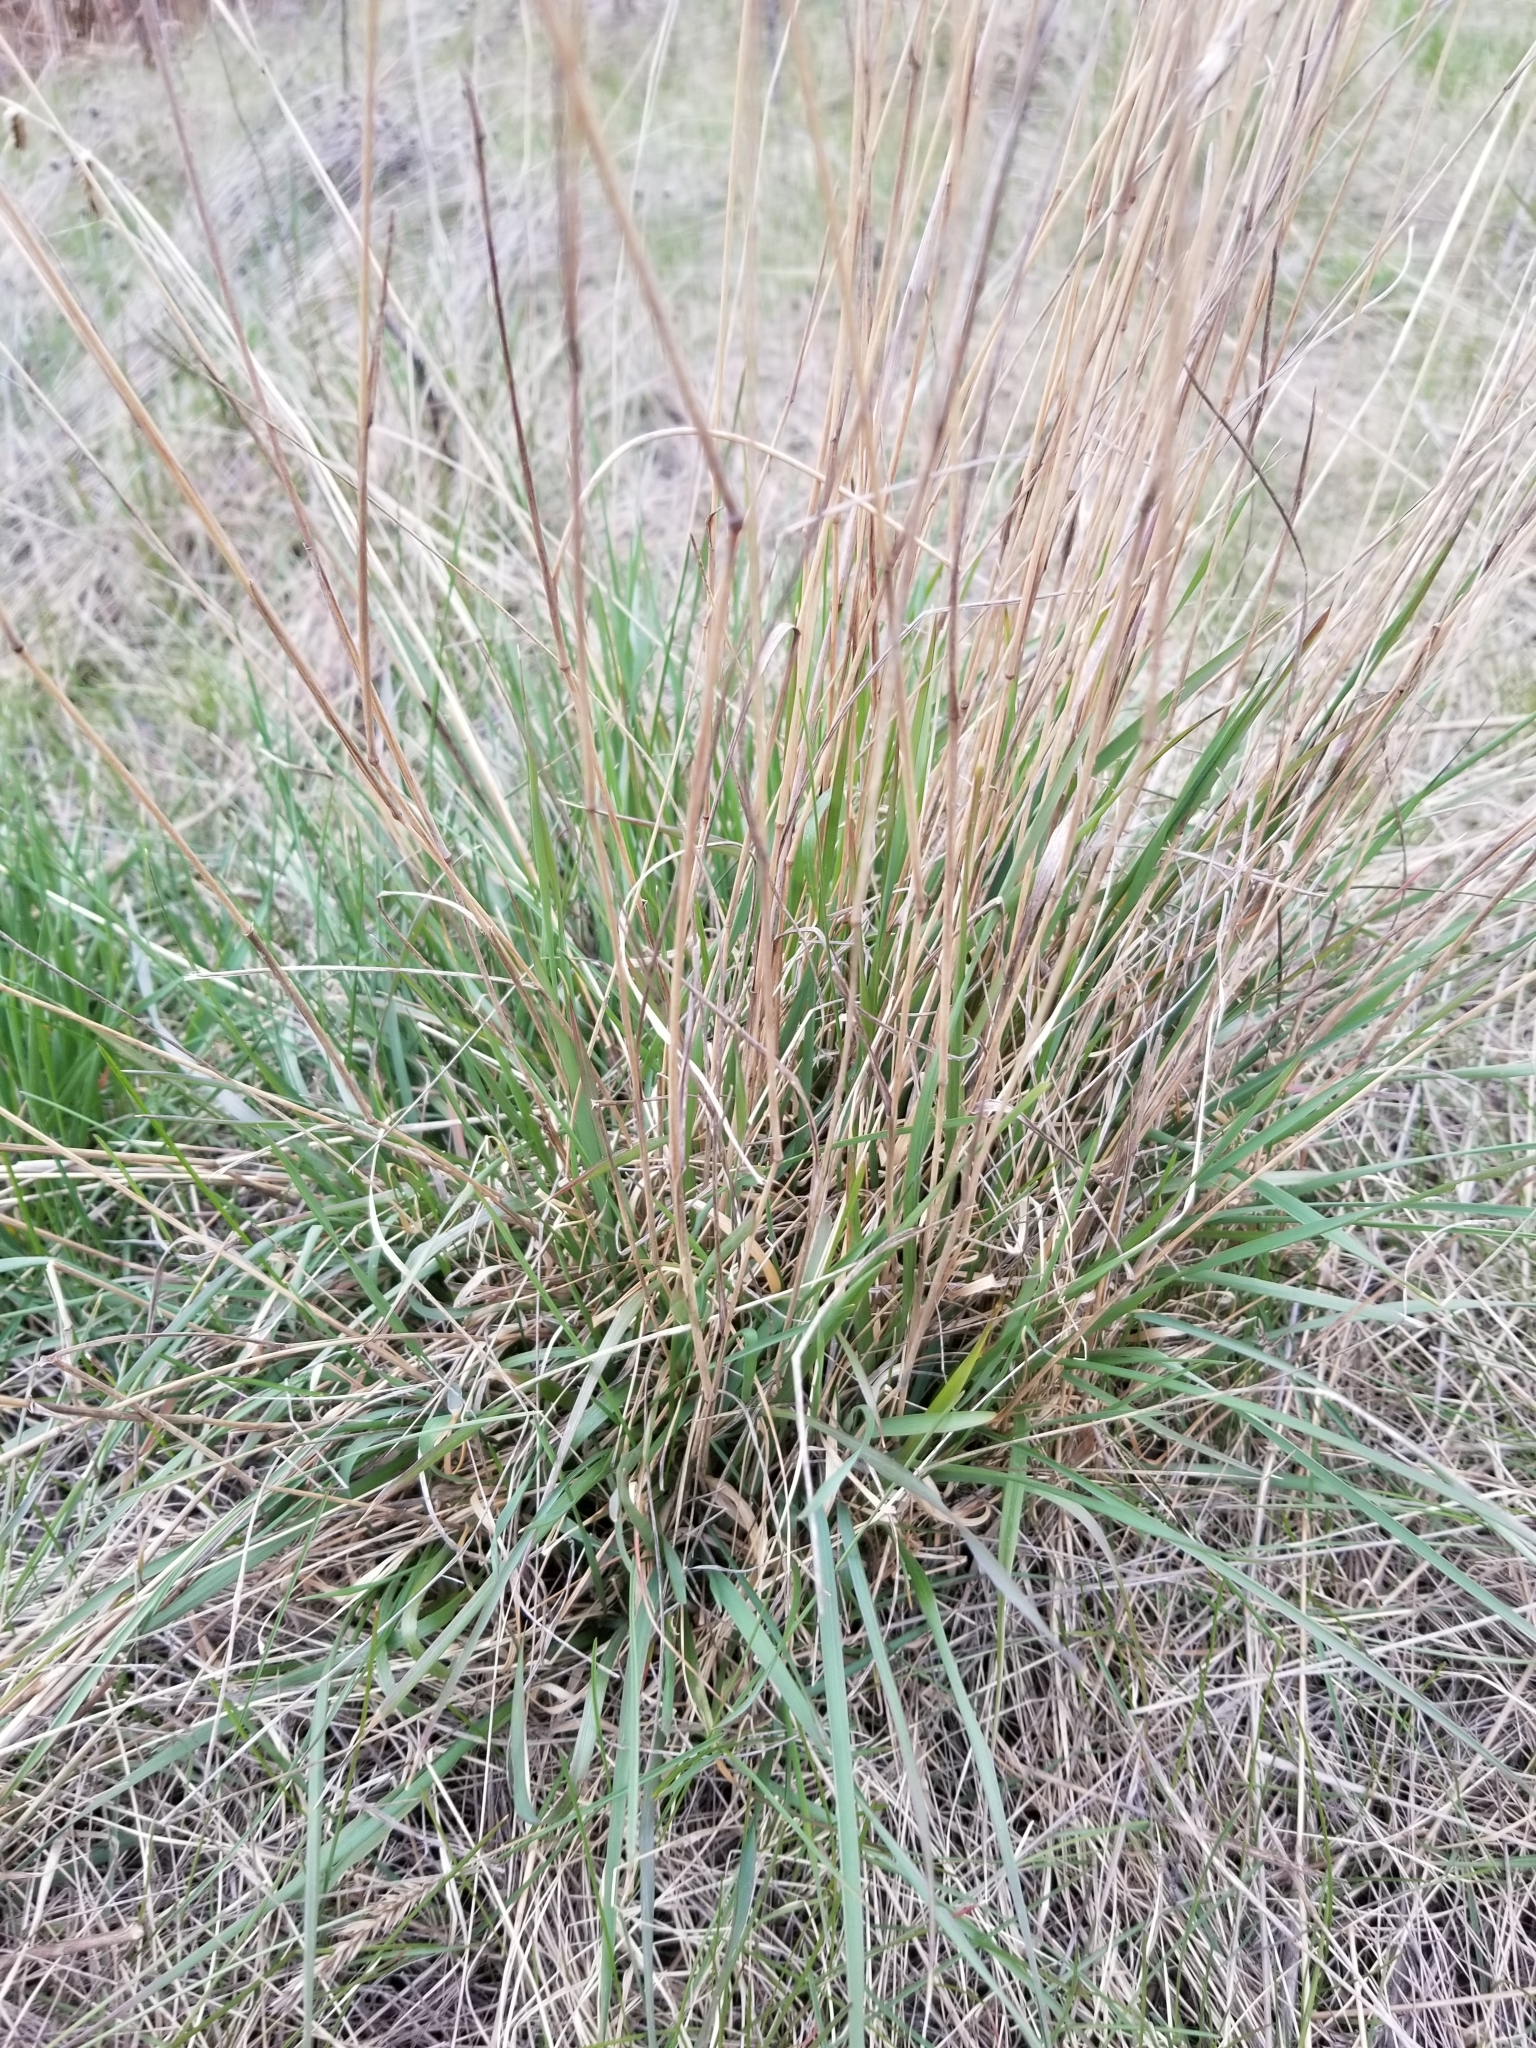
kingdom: Plantae
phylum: Tracheophyta
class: Liliopsida
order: Poales
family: Poaceae
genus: Agropyron
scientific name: Agropyron cristatum
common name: Crested wheatgrass
